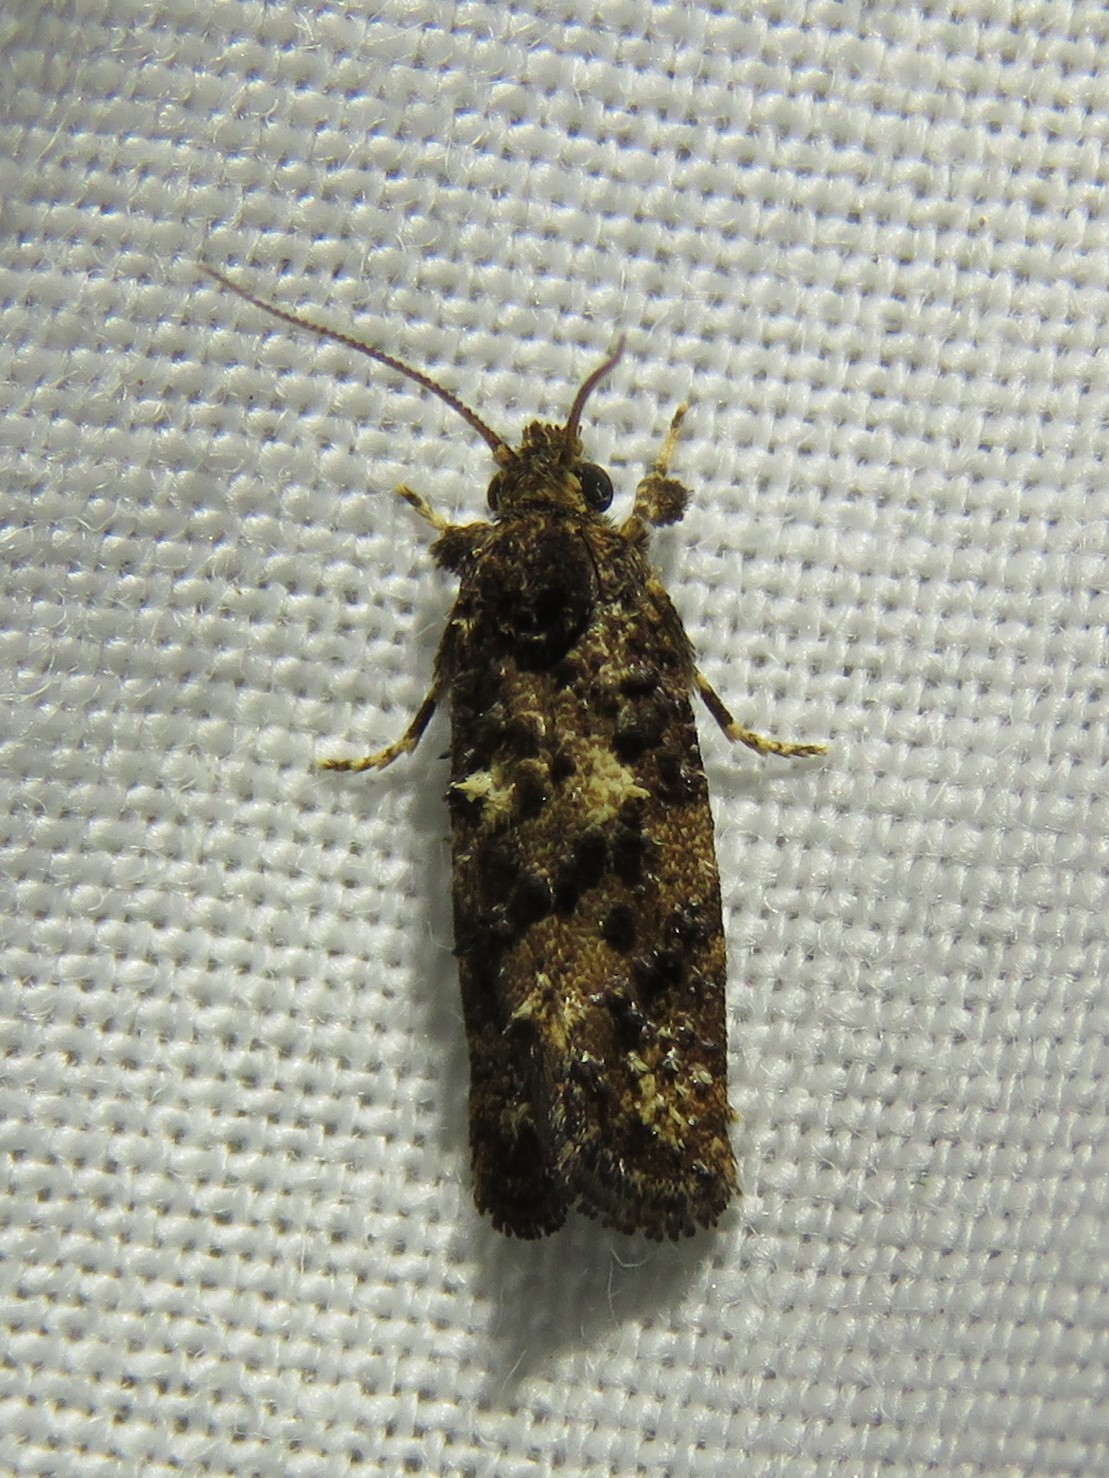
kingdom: Animalia
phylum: Arthropoda
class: Insecta
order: Lepidoptera
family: Tineidae
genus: Acrolophus
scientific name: Acrolophus cressoni
